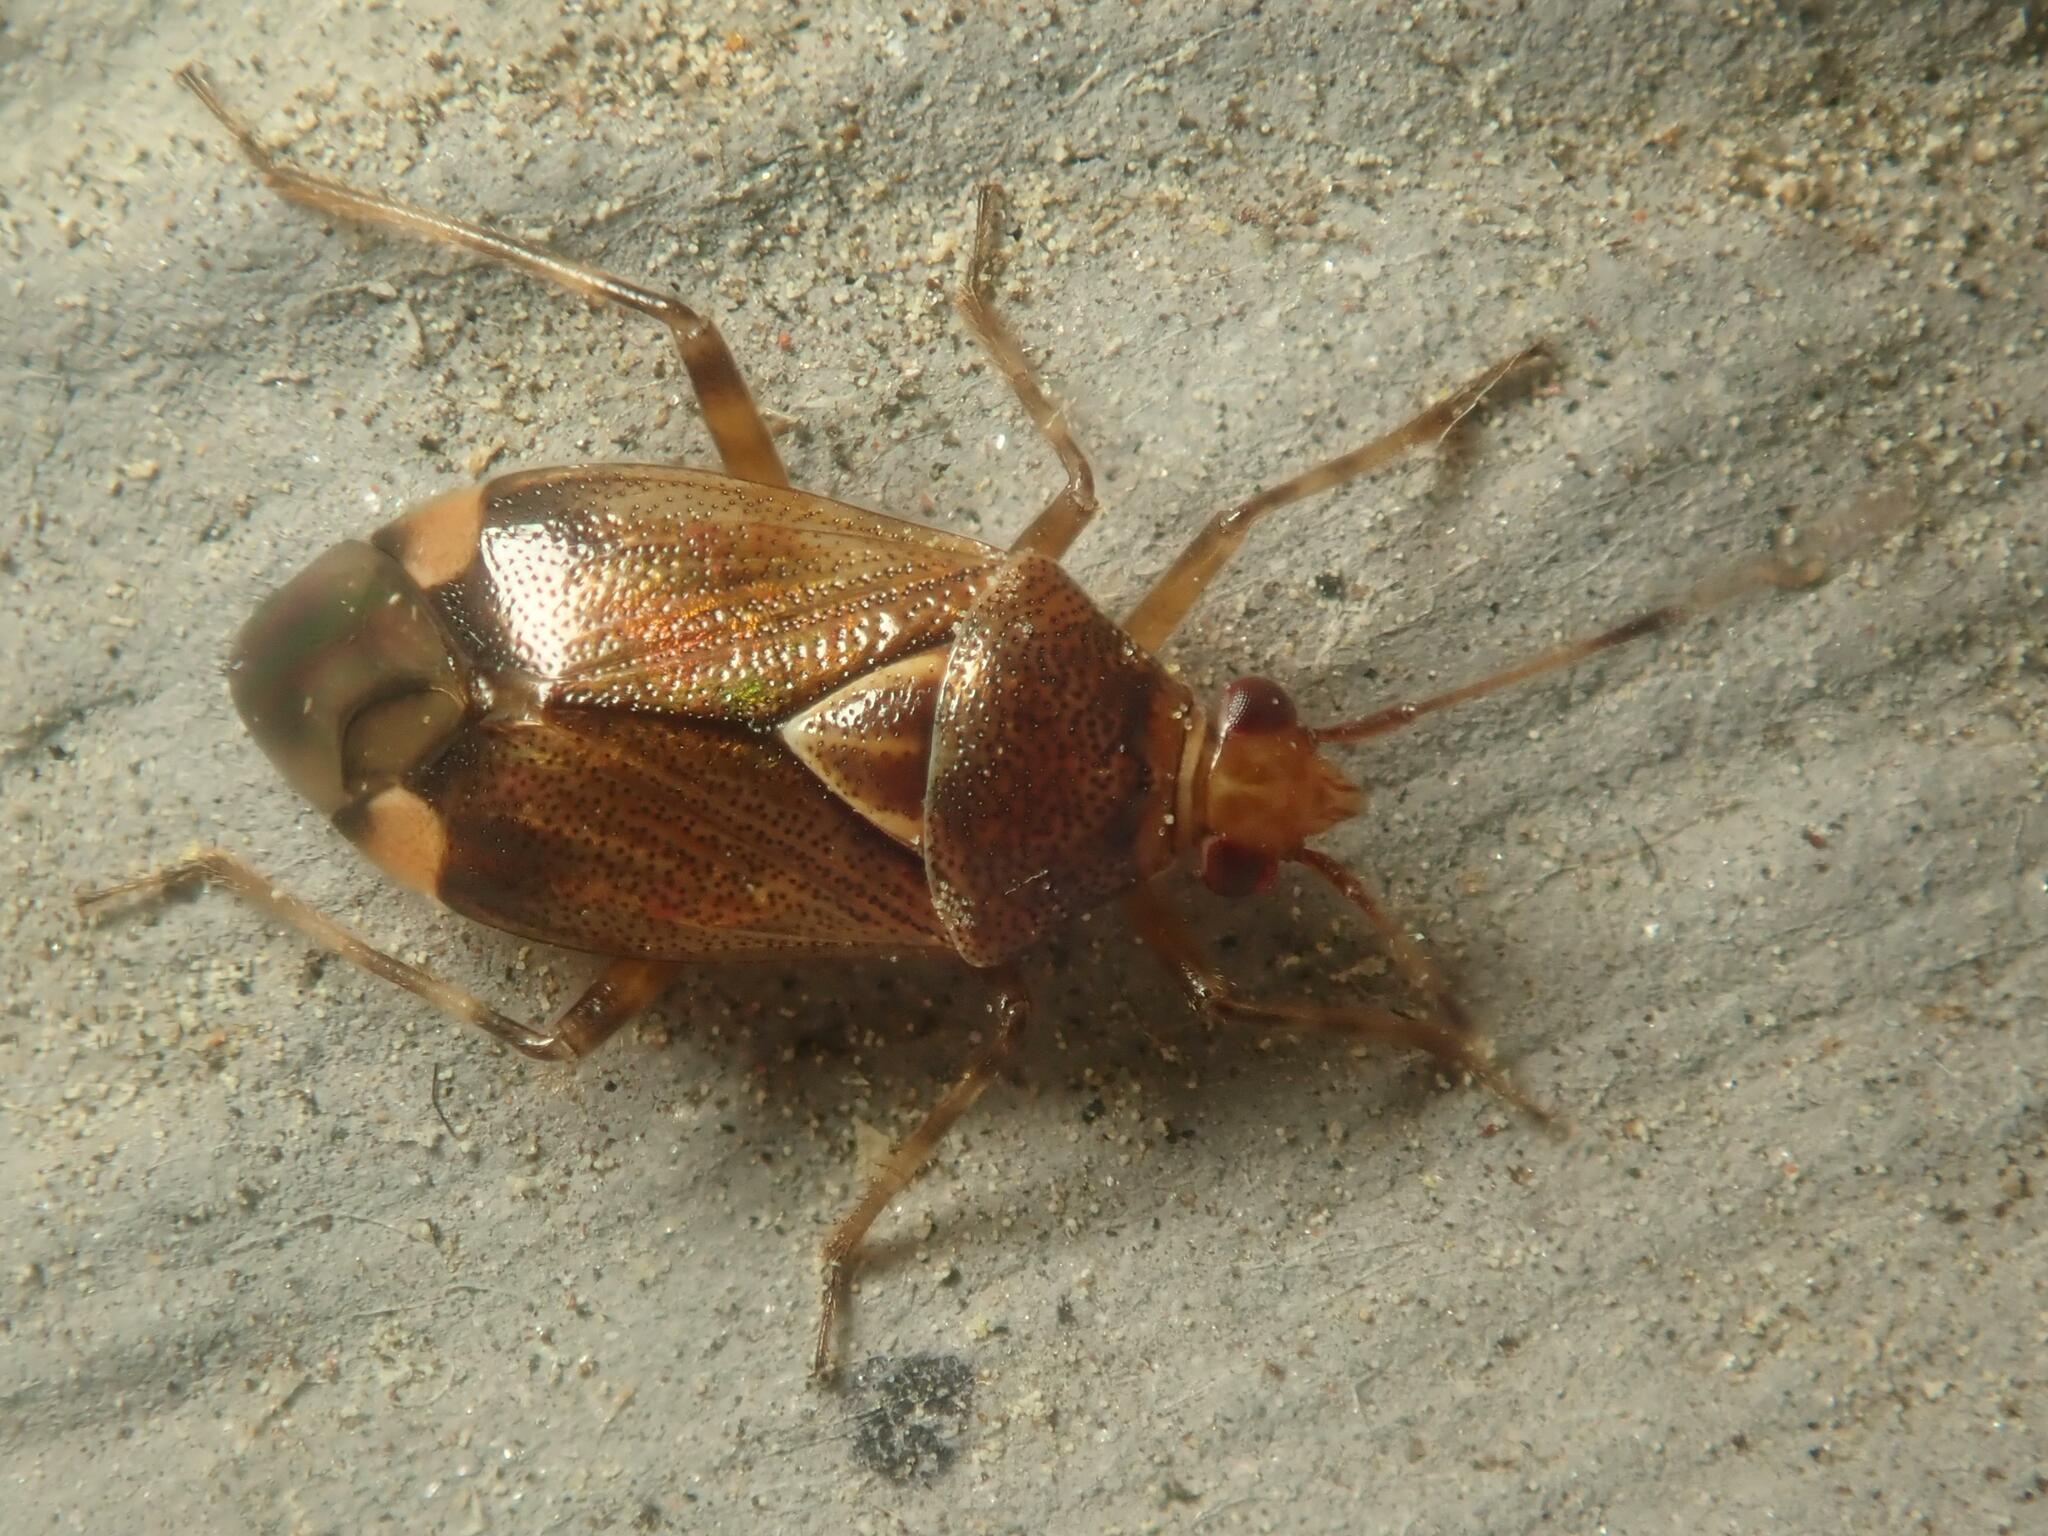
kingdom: Animalia
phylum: Arthropoda
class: Insecta
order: Hemiptera
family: Miridae
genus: Deraeocoris
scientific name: Deraeocoris flavilinea
